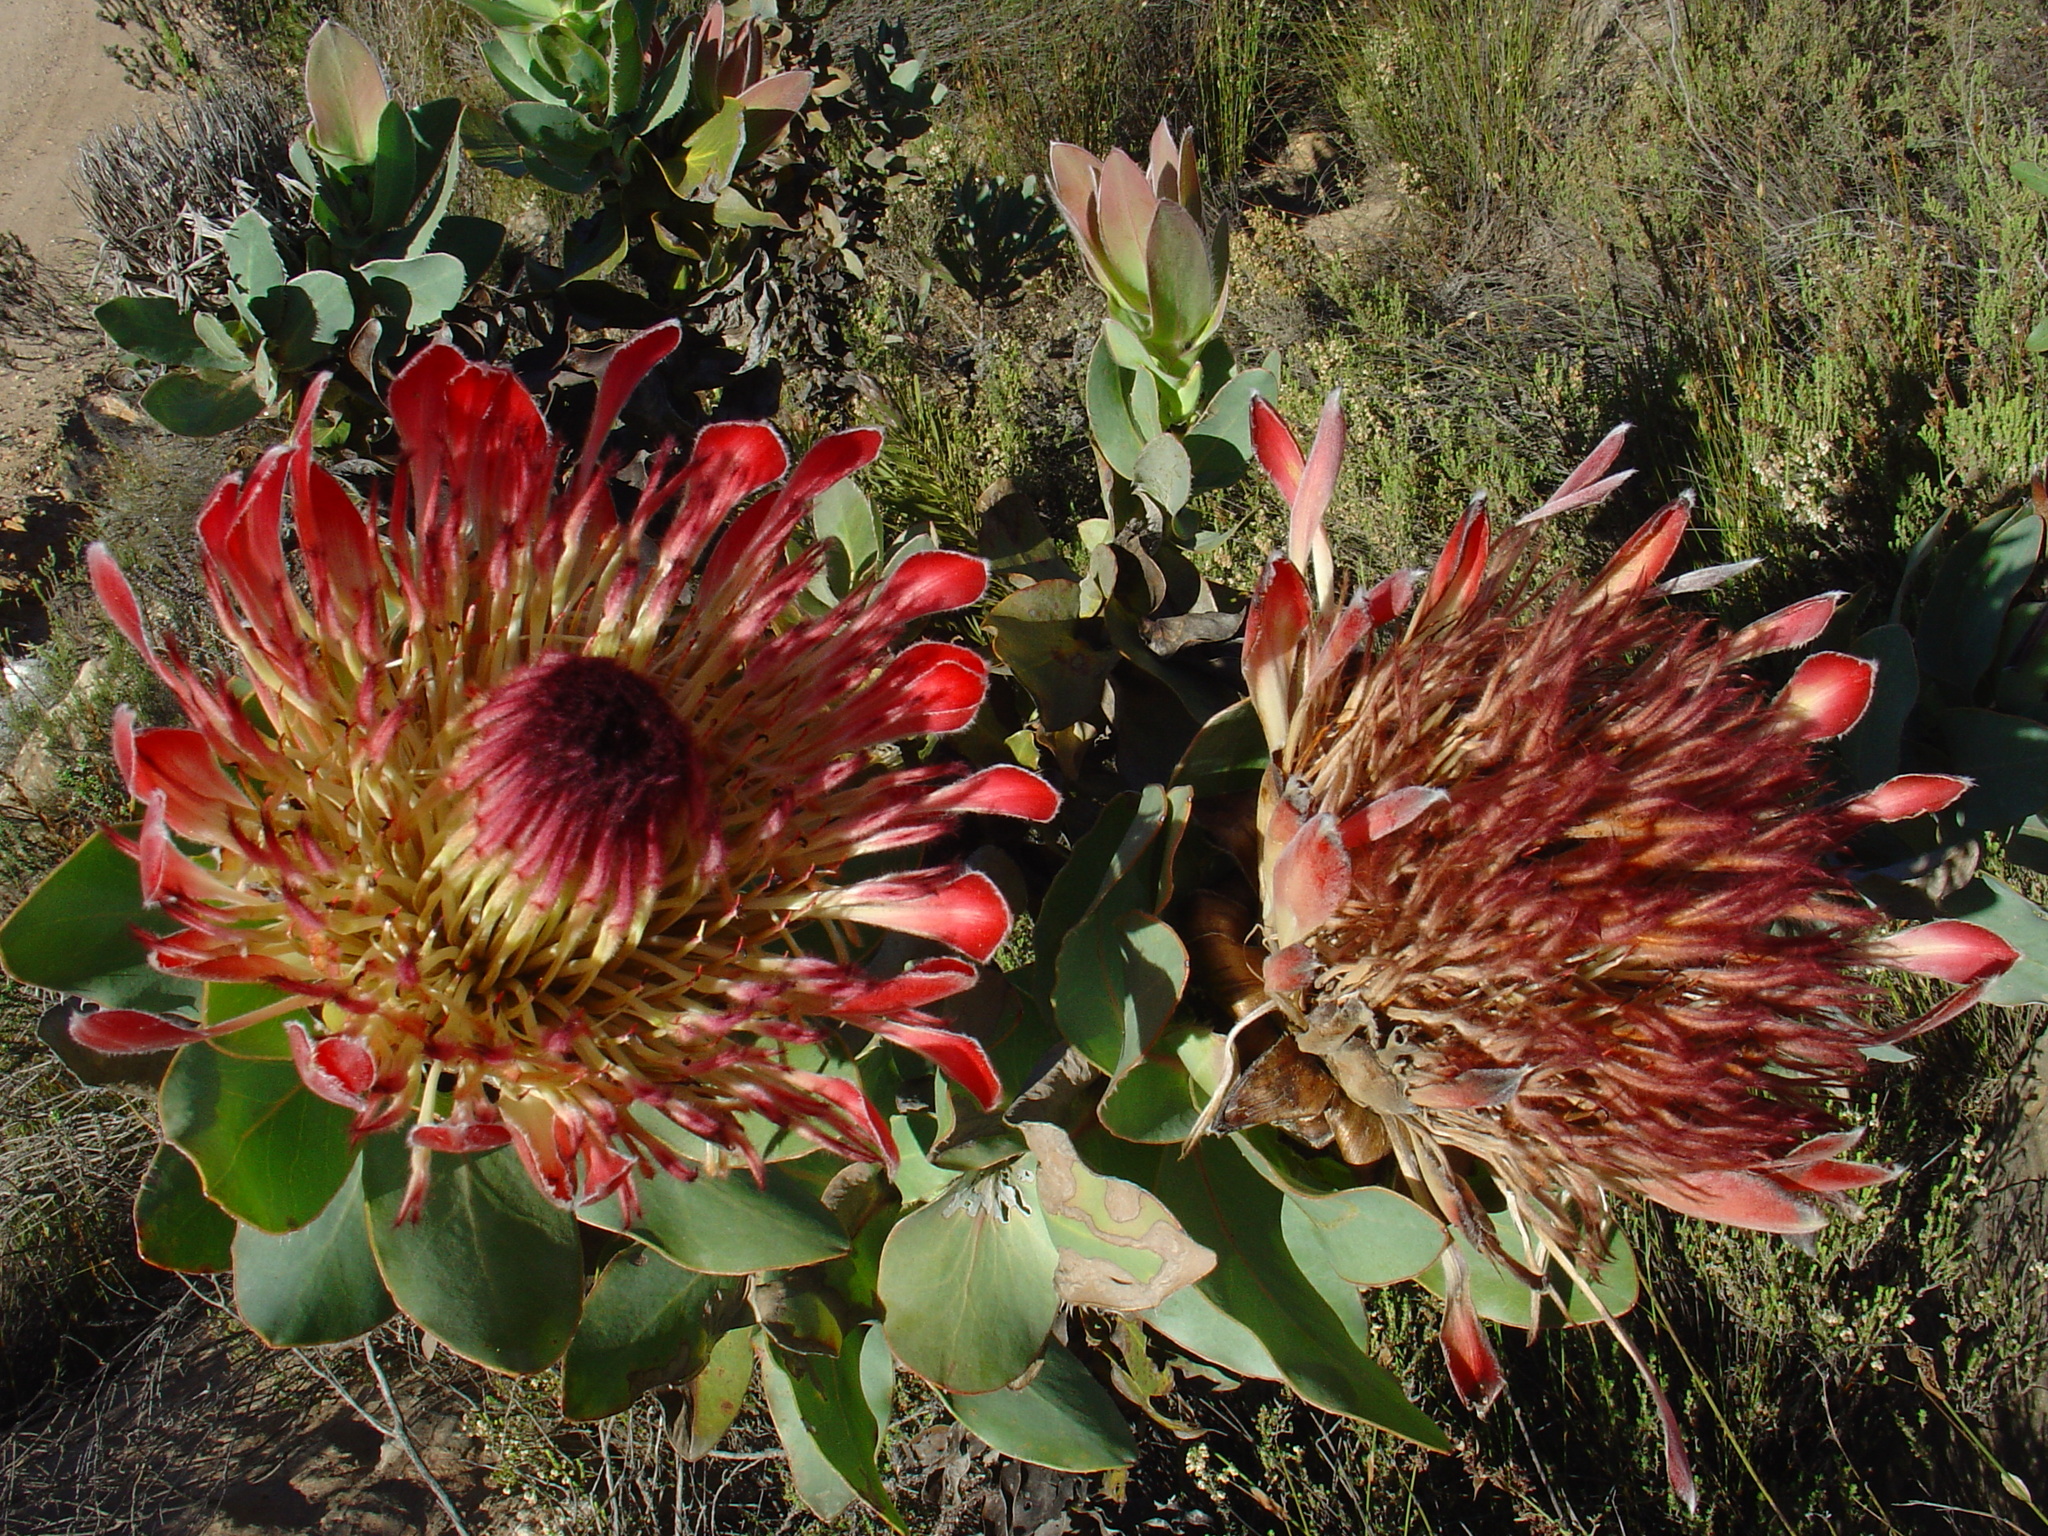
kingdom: Plantae
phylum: Tracheophyta
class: Magnoliopsida
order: Proteales
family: Proteaceae
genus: Protea
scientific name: Protea eximia
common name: Broad-leaved sugarbush
